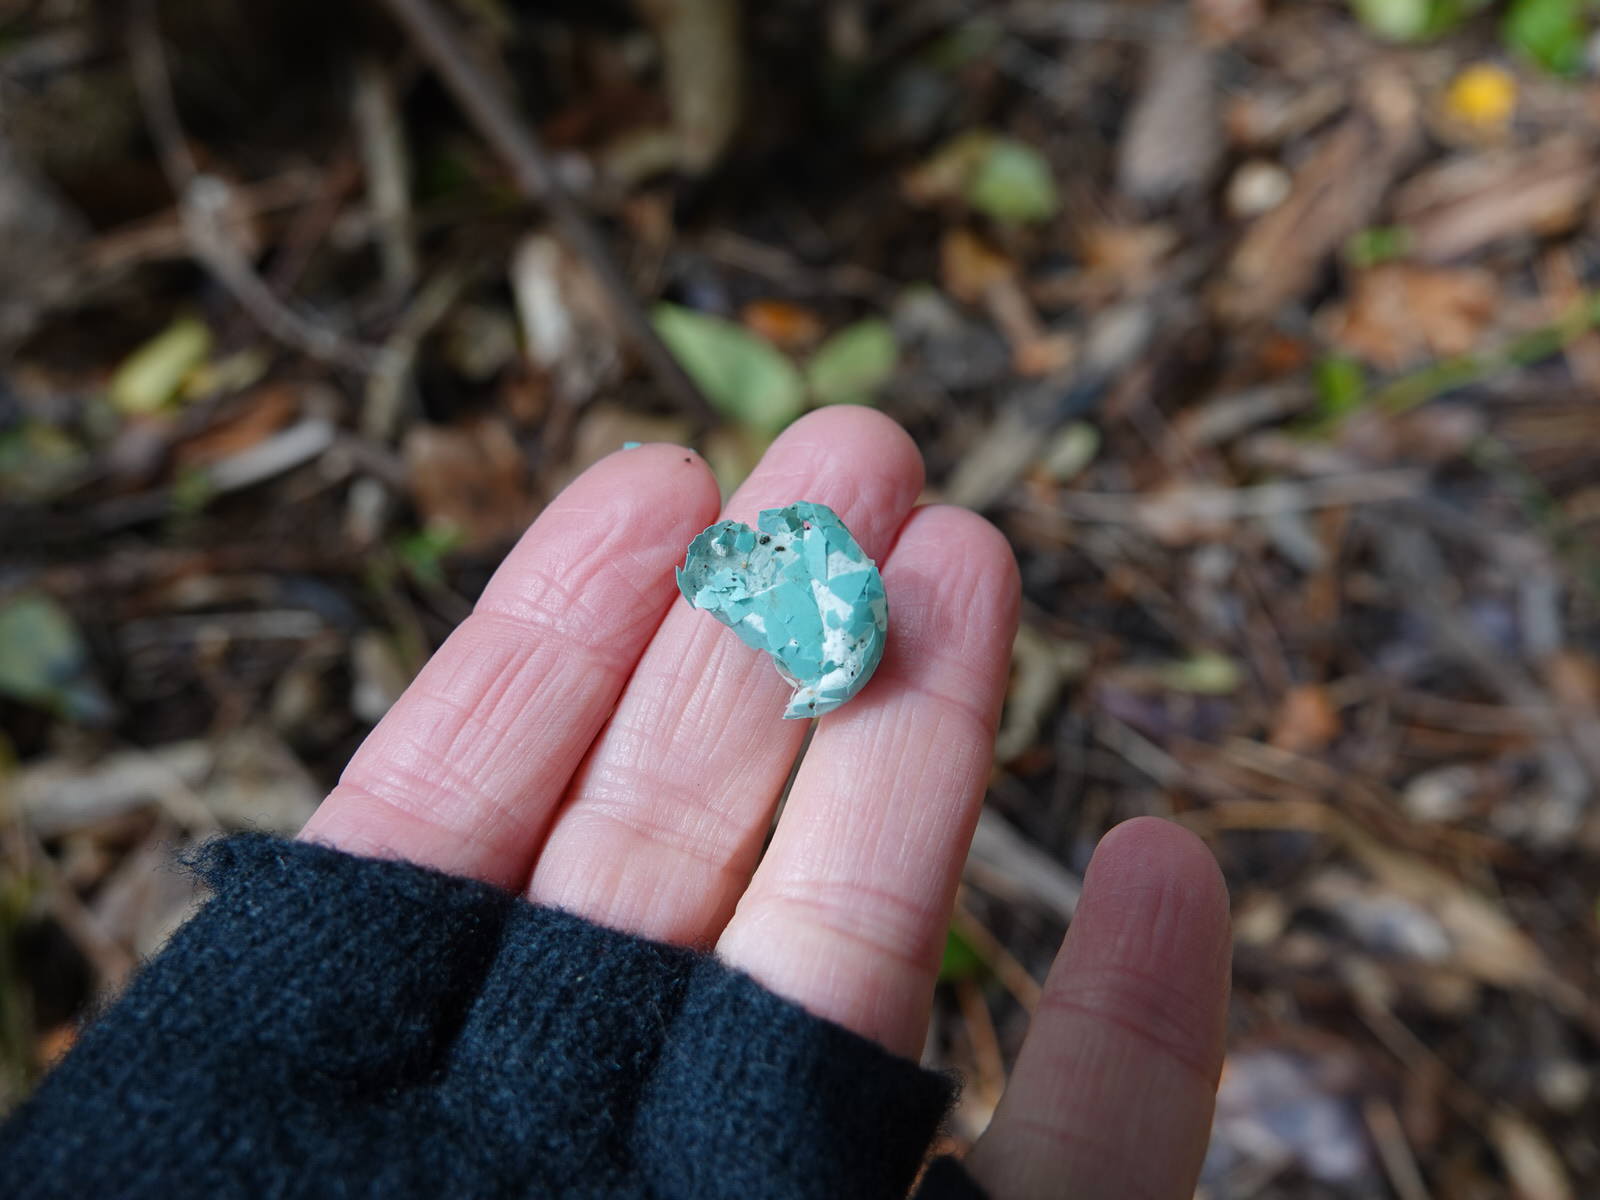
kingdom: Animalia
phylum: Chordata
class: Aves
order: Passeriformes
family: Turdidae
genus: Turdus
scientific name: Turdus philomelos
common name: Song thrush
